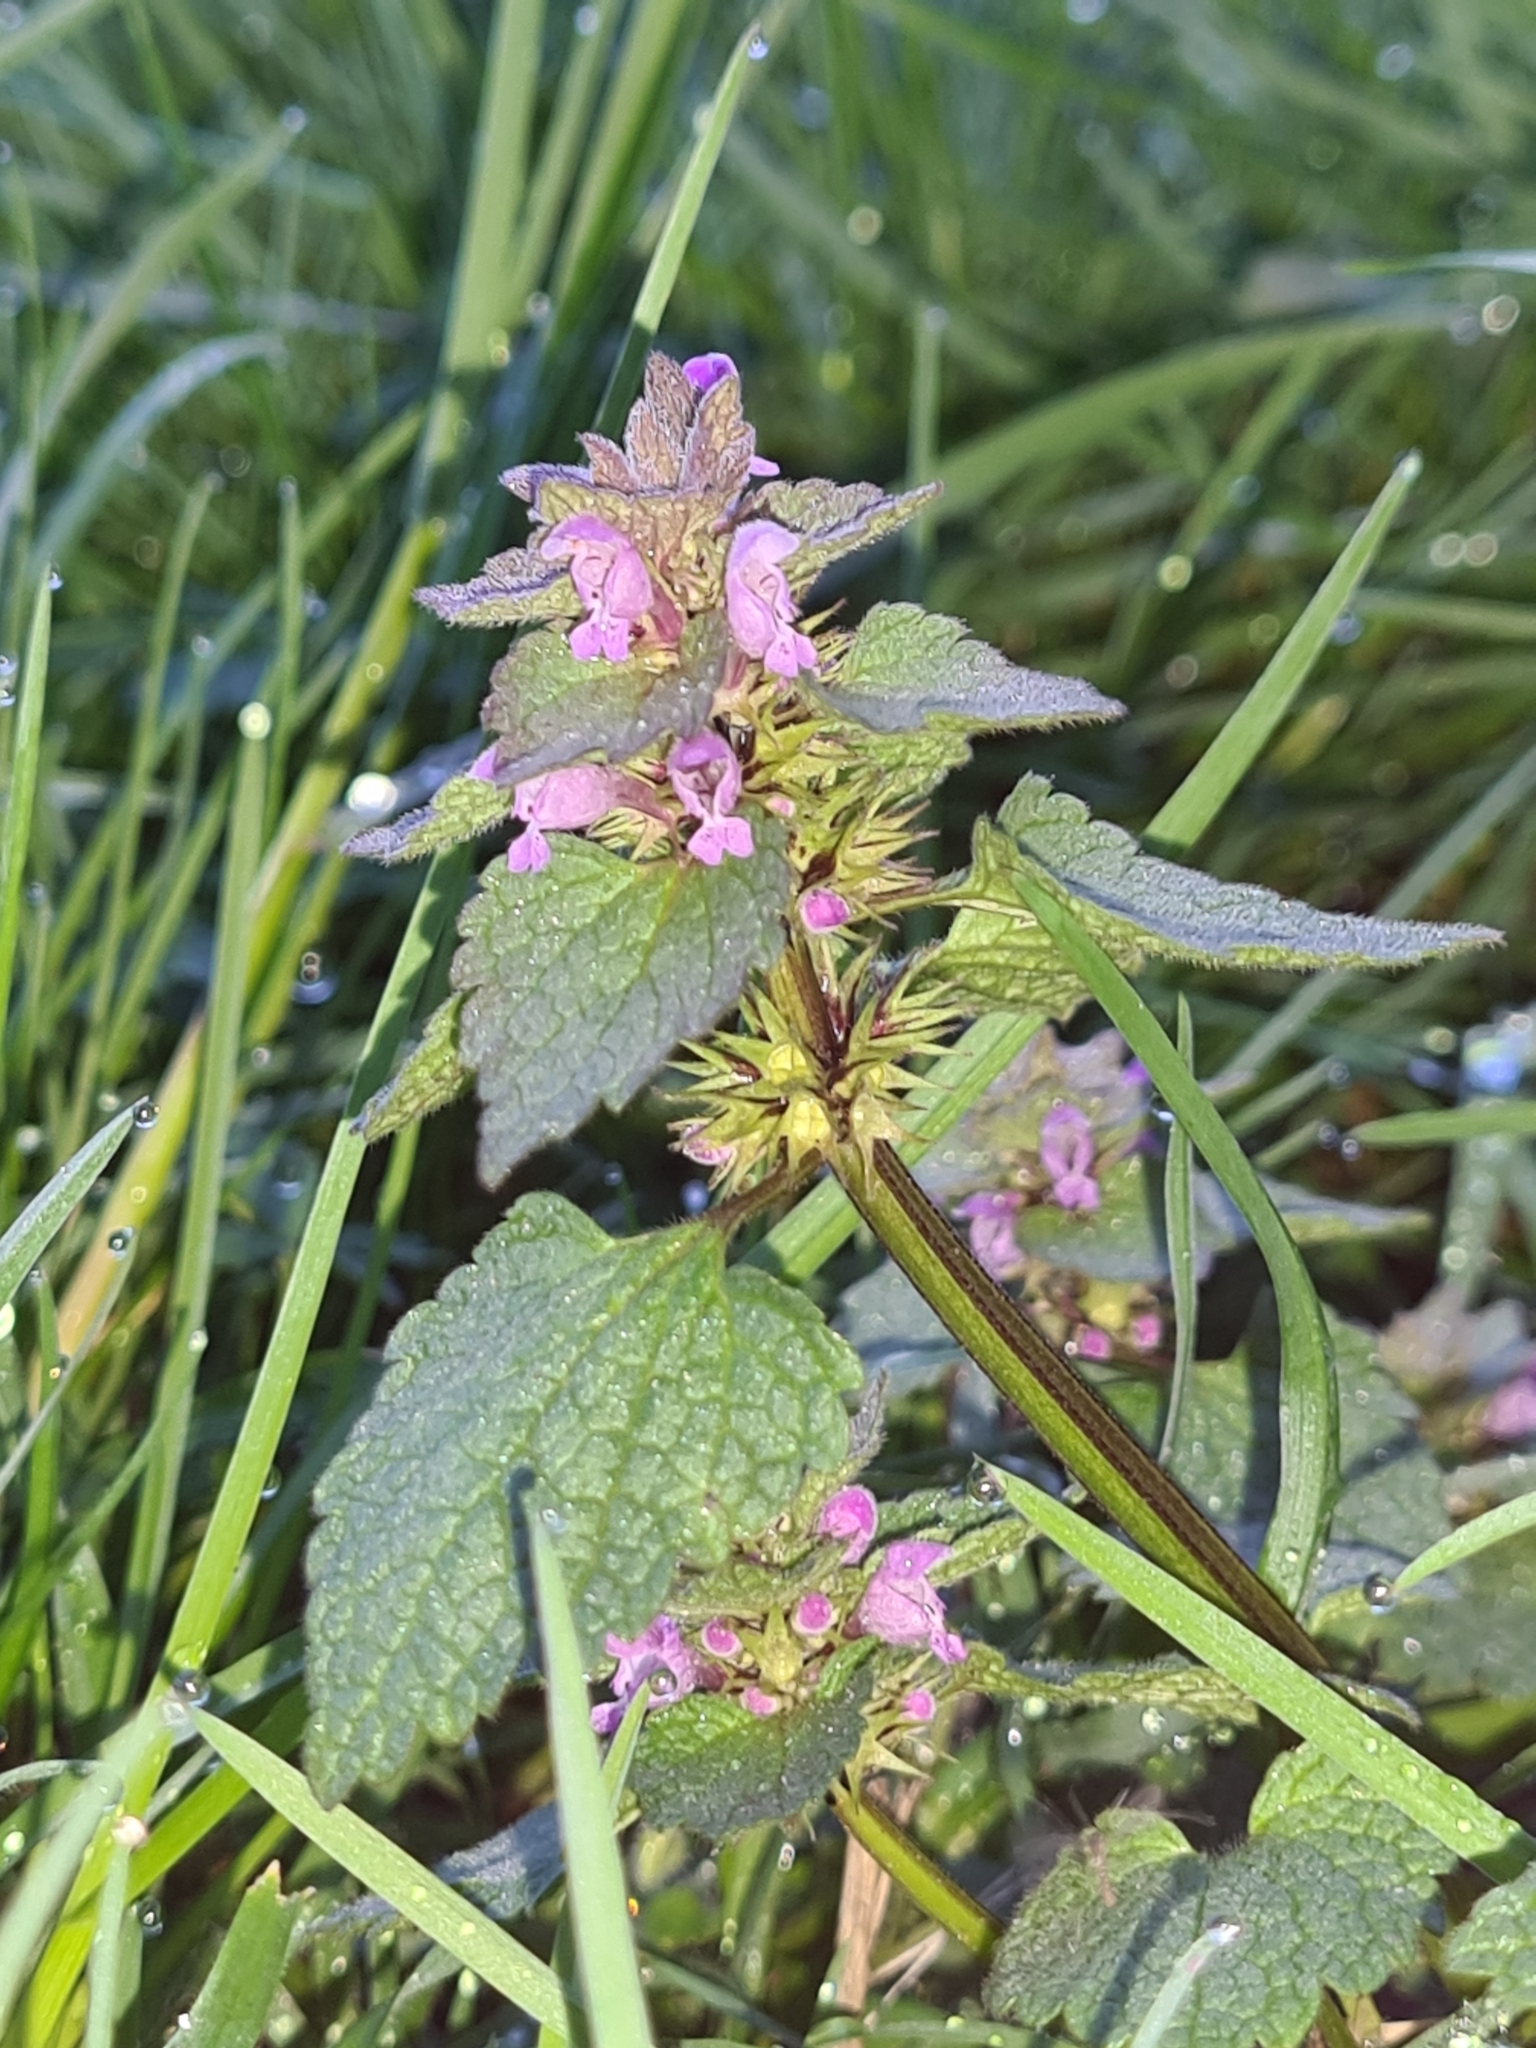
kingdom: Plantae
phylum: Tracheophyta
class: Magnoliopsida
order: Lamiales
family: Lamiaceae
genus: Lamium
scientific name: Lamium purpureum
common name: Red dead-nettle
